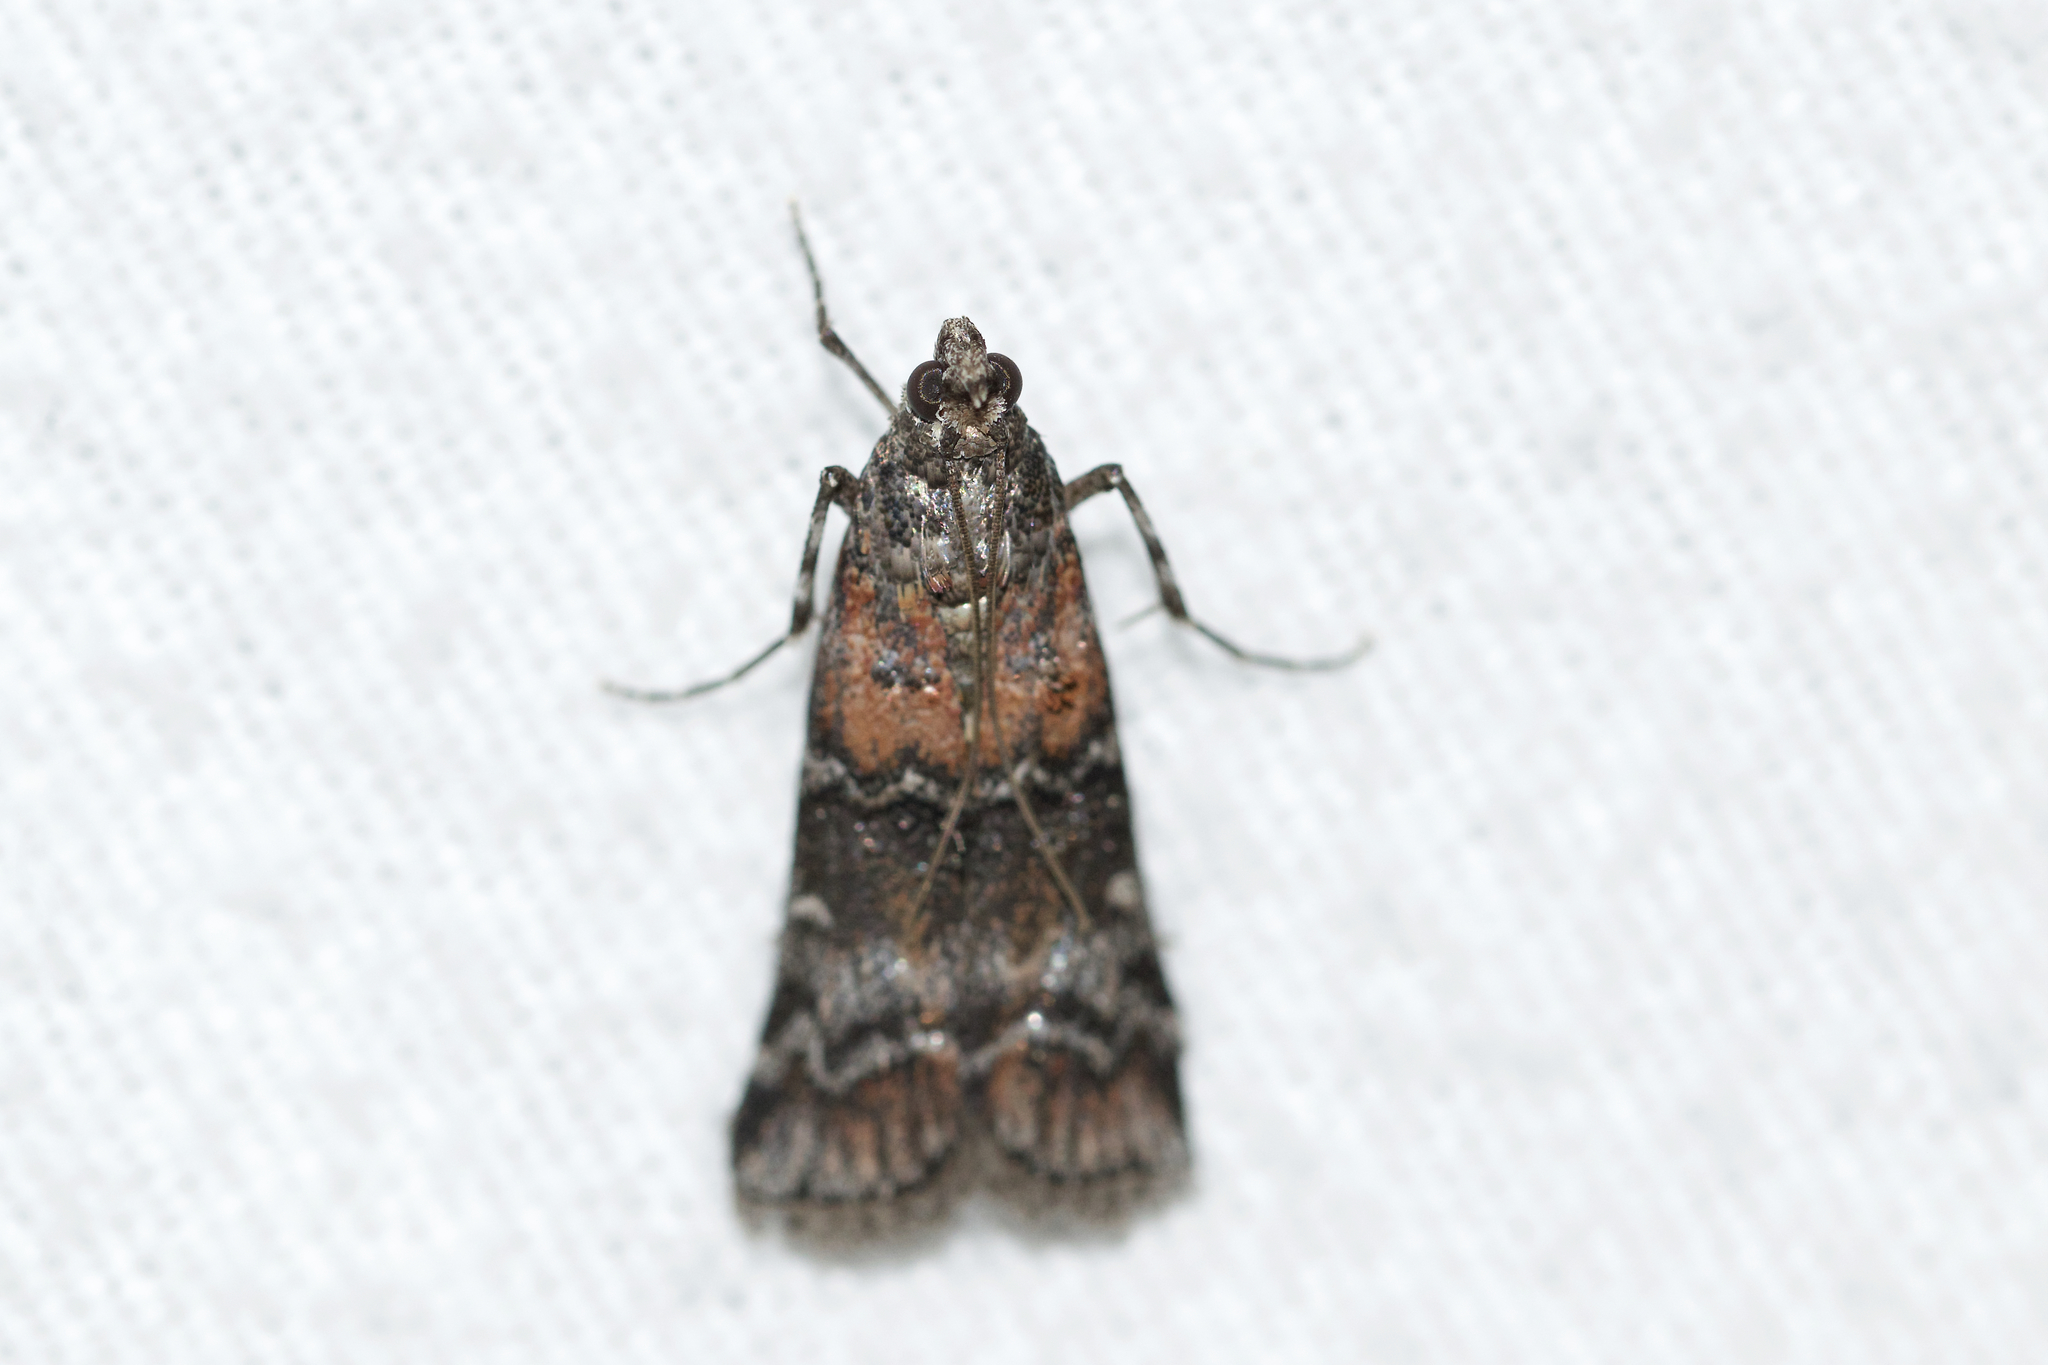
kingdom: Animalia
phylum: Arthropoda
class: Insecta
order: Lepidoptera
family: Pyralidae
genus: Dioryctria
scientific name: Dioryctria zimmermani
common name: Zimmerman pine moth
